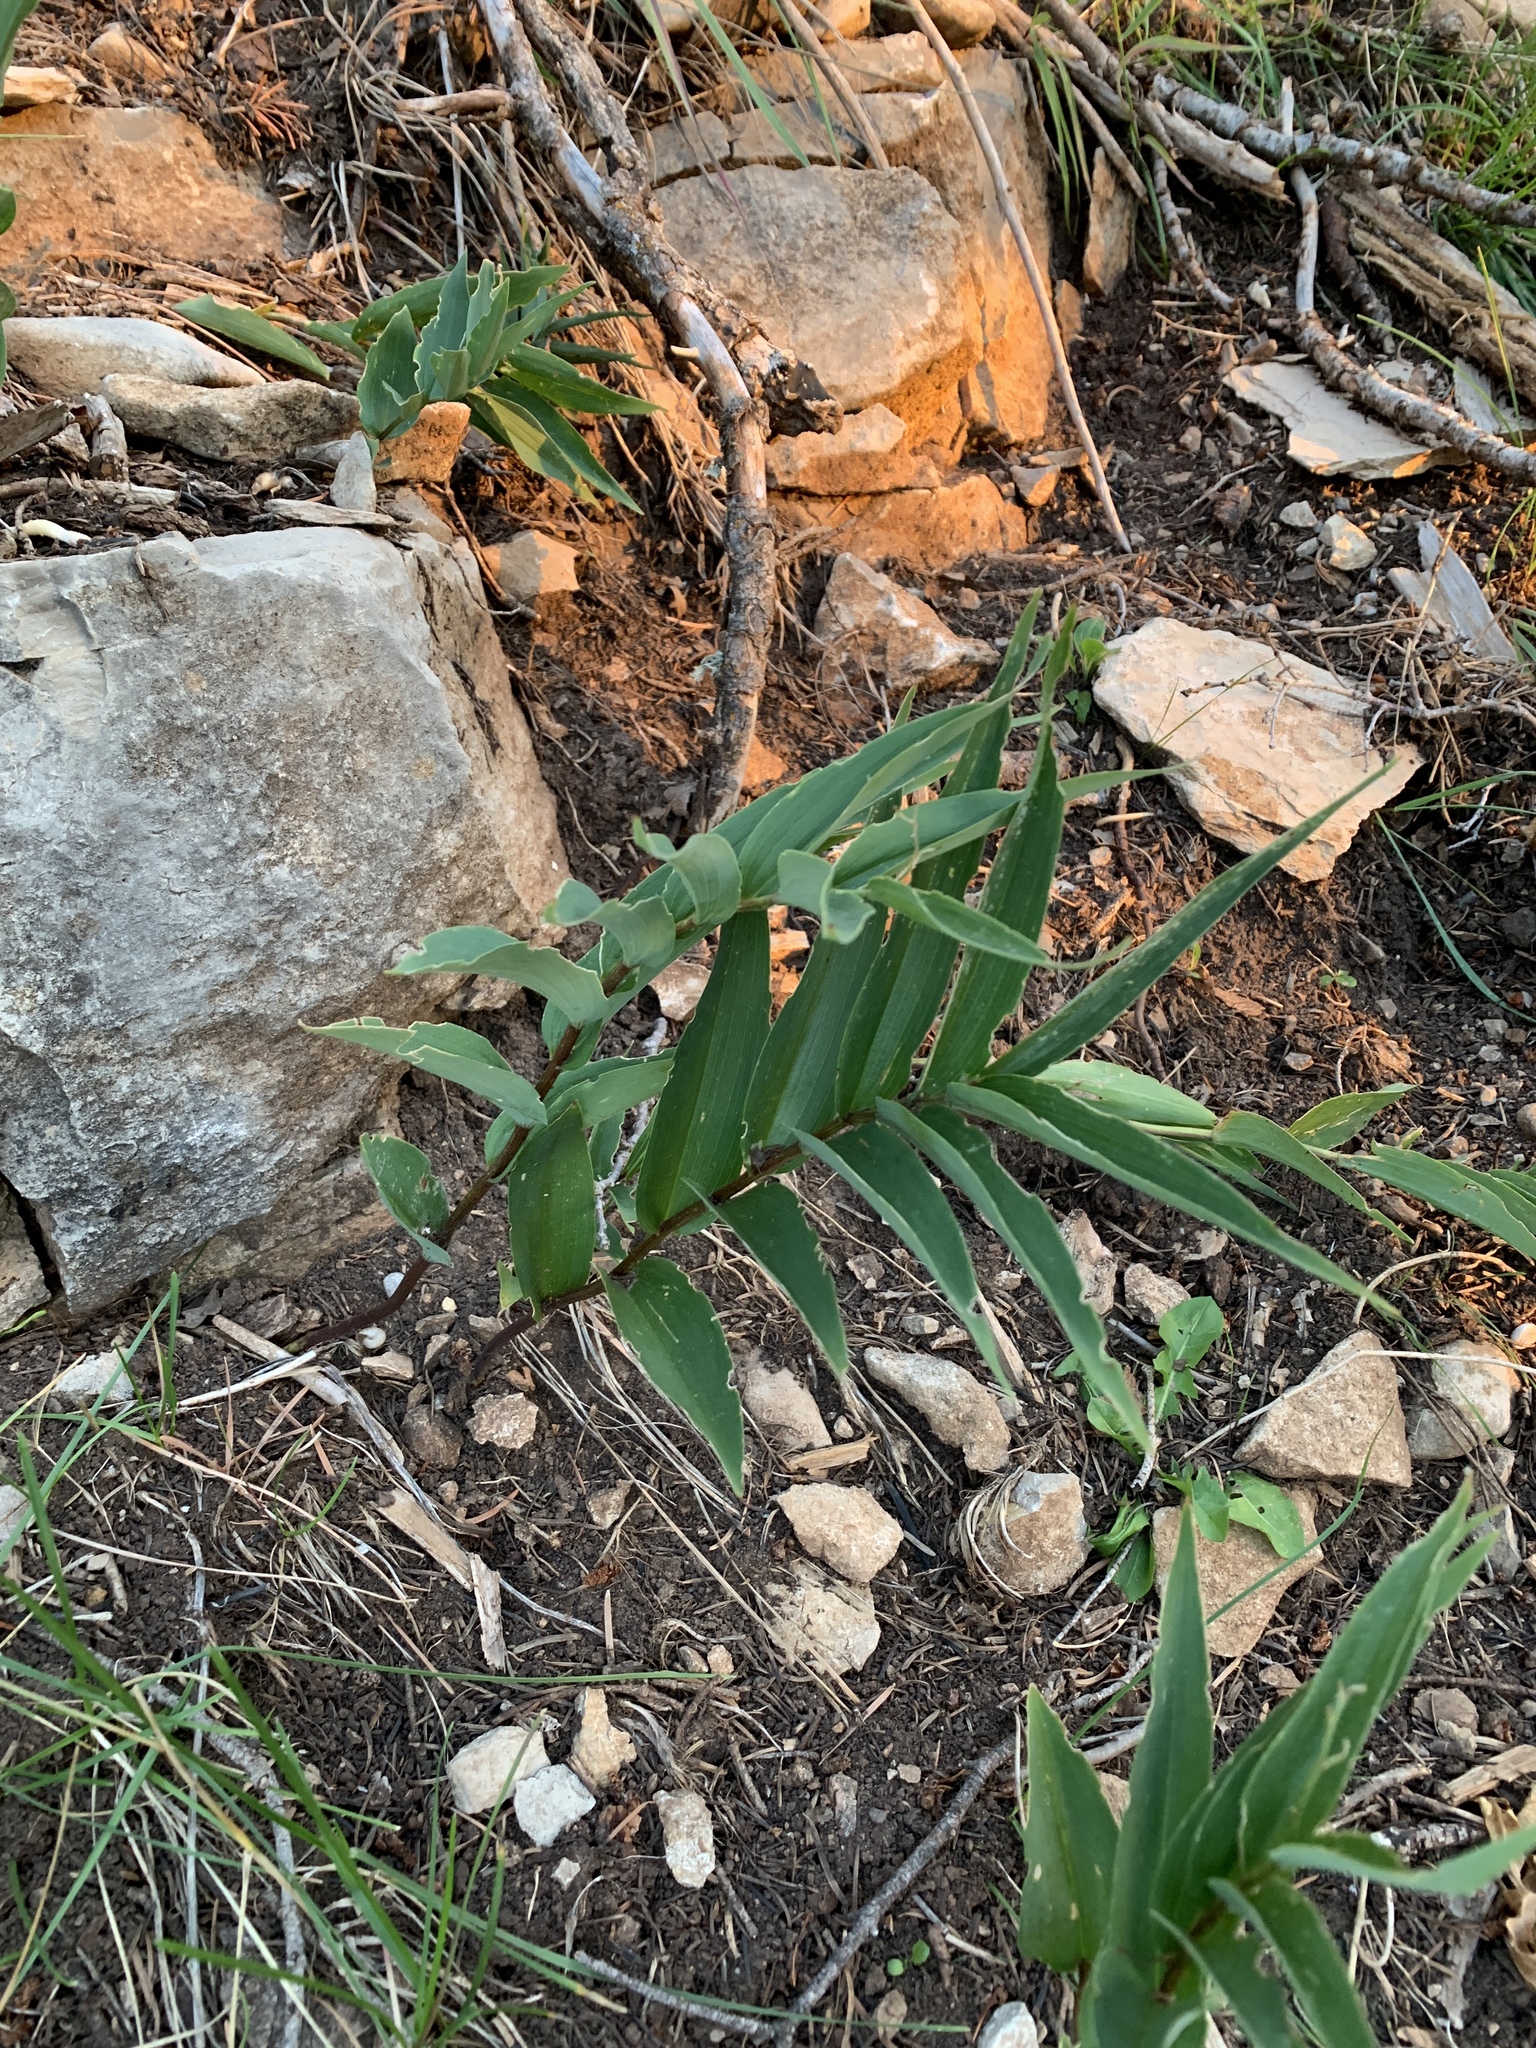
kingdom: Plantae
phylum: Tracheophyta
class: Liliopsida
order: Asparagales
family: Asparagaceae
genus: Maianthemum
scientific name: Maianthemum stellatum
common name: Little false solomon's seal
